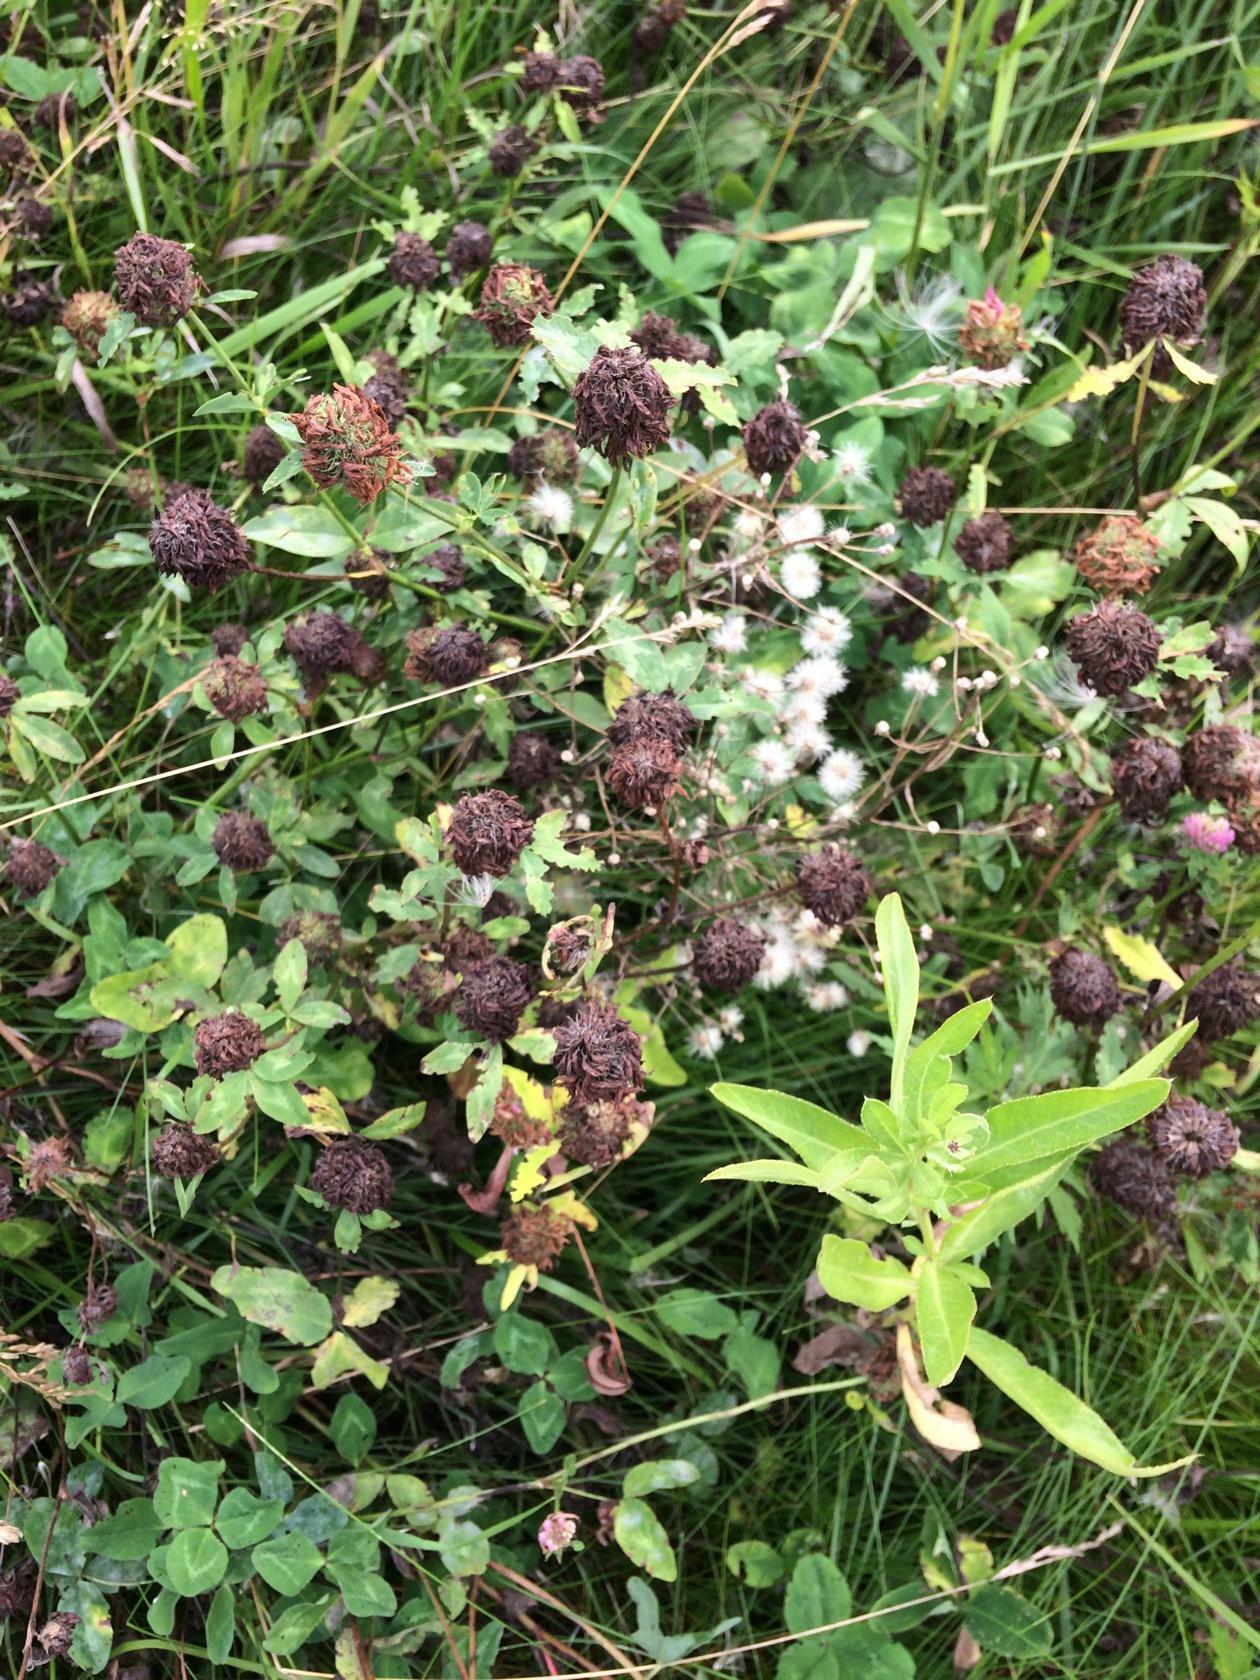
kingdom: Plantae
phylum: Tracheophyta
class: Magnoliopsida
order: Fabales
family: Fabaceae
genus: Trifolium
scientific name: Trifolium pratense
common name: Red clover
